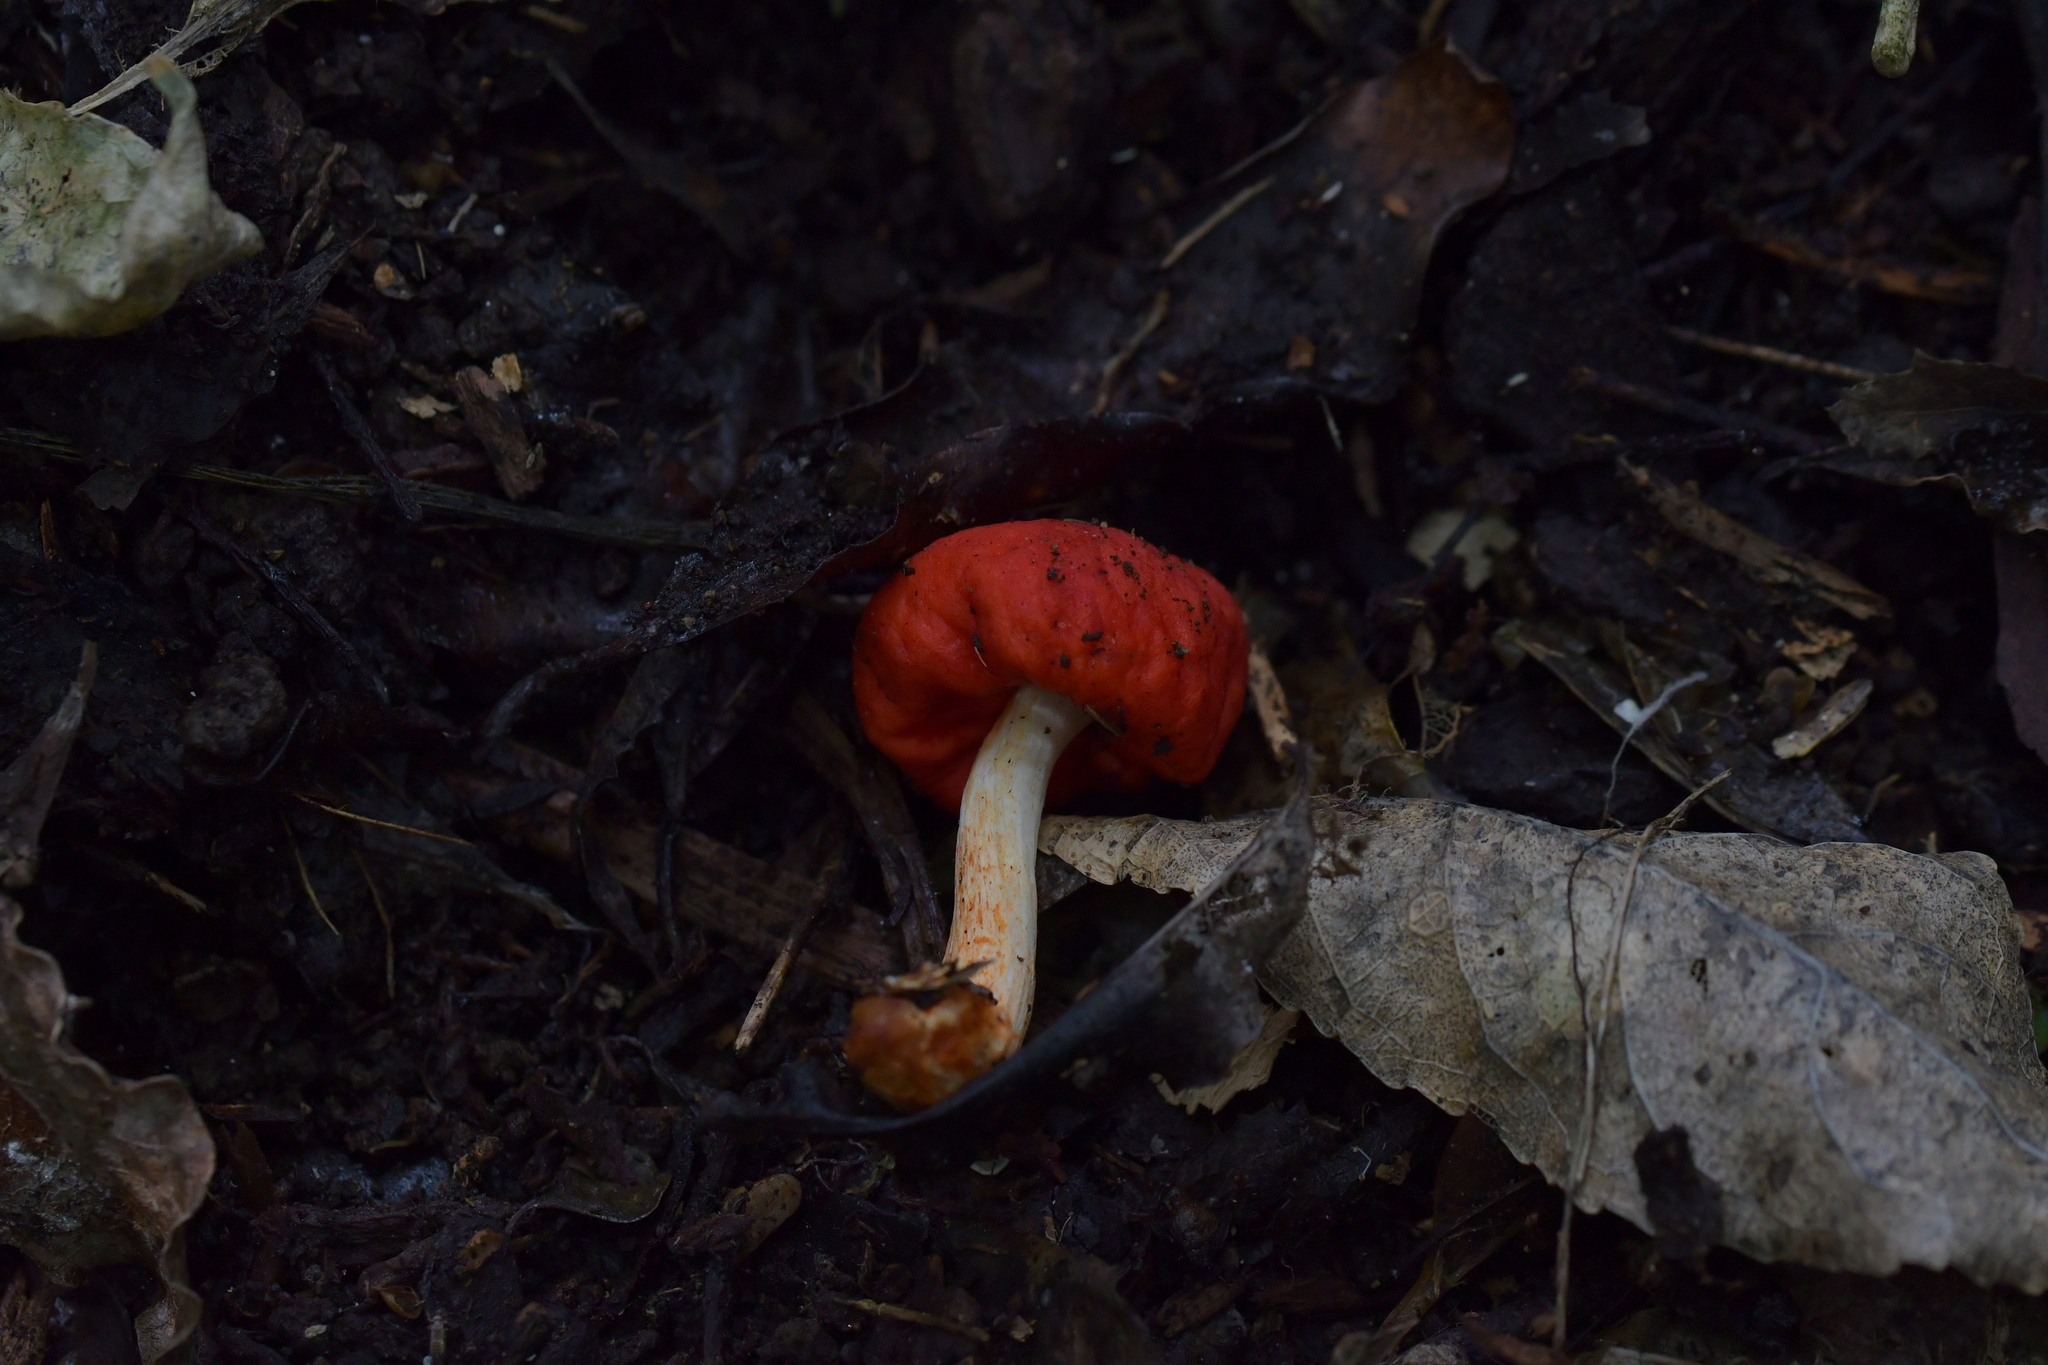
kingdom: Fungi
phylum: Basidiomycota
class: Agaricomycetes
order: Agaricales
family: Strophariaceae
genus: Leratiomyces
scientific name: Leratiomyces erythrocephalus
